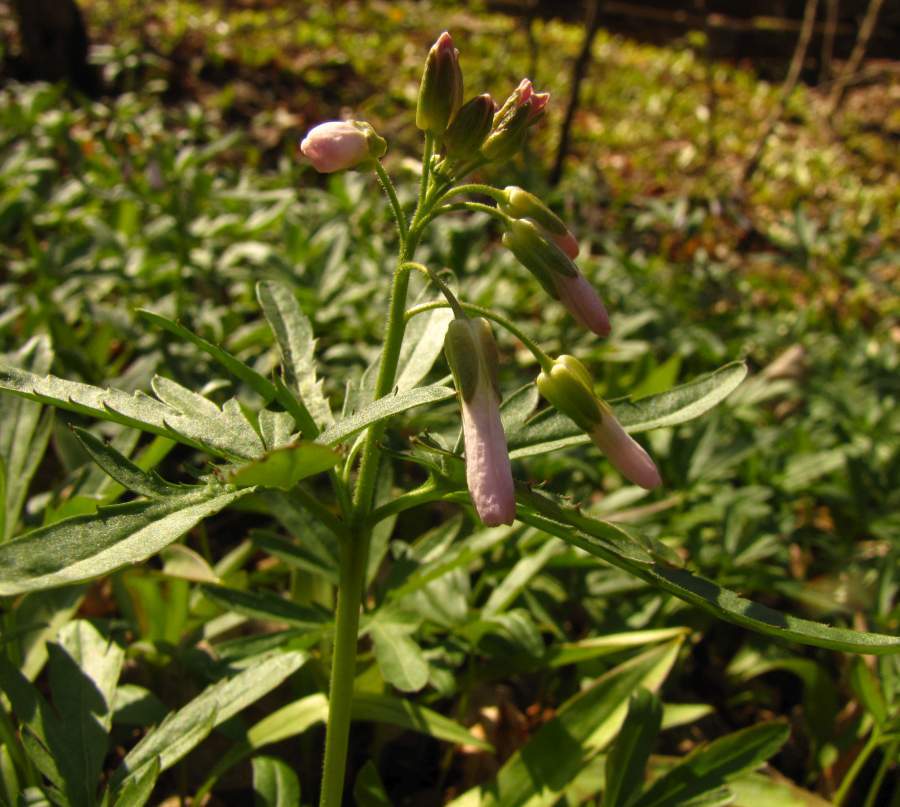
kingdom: Plantae
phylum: Tracheophyta
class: Magnoliopsida
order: Brassicales
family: Brassicaceae
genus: Cardamine
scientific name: Cardamine concatenata
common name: Cut-leaf toothcup
